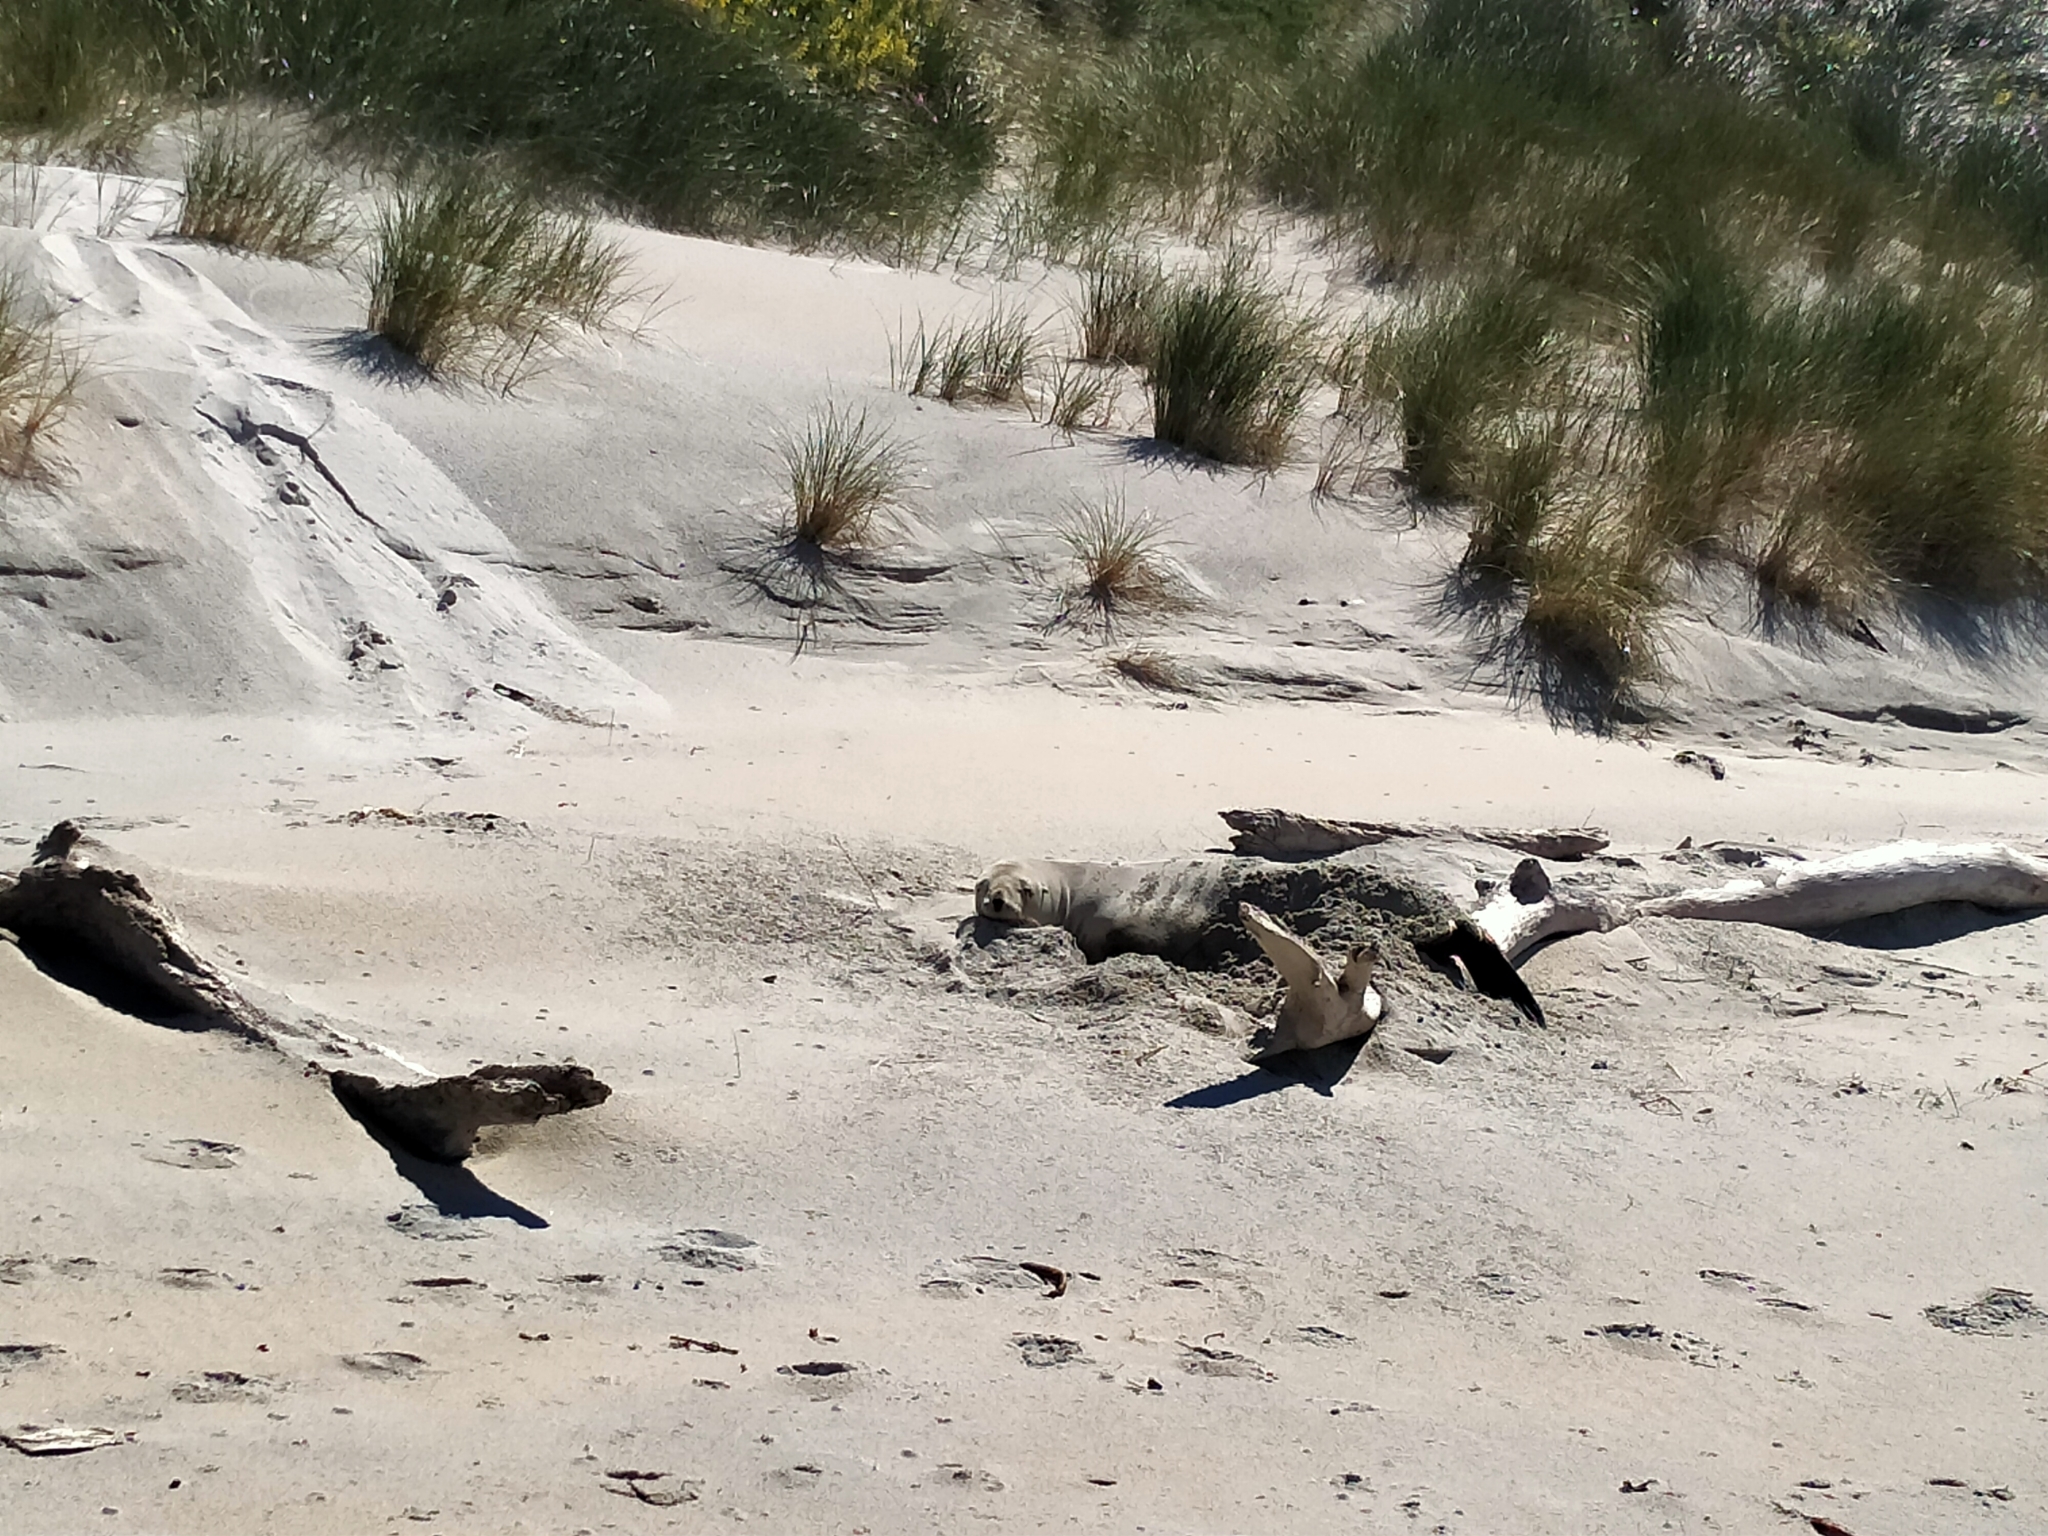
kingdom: Animalia
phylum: Chordata
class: Mammalia
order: Carnivora
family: Otariidae
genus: Phocarctos
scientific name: Phocarctos hookeri
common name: New zealand sea lion
